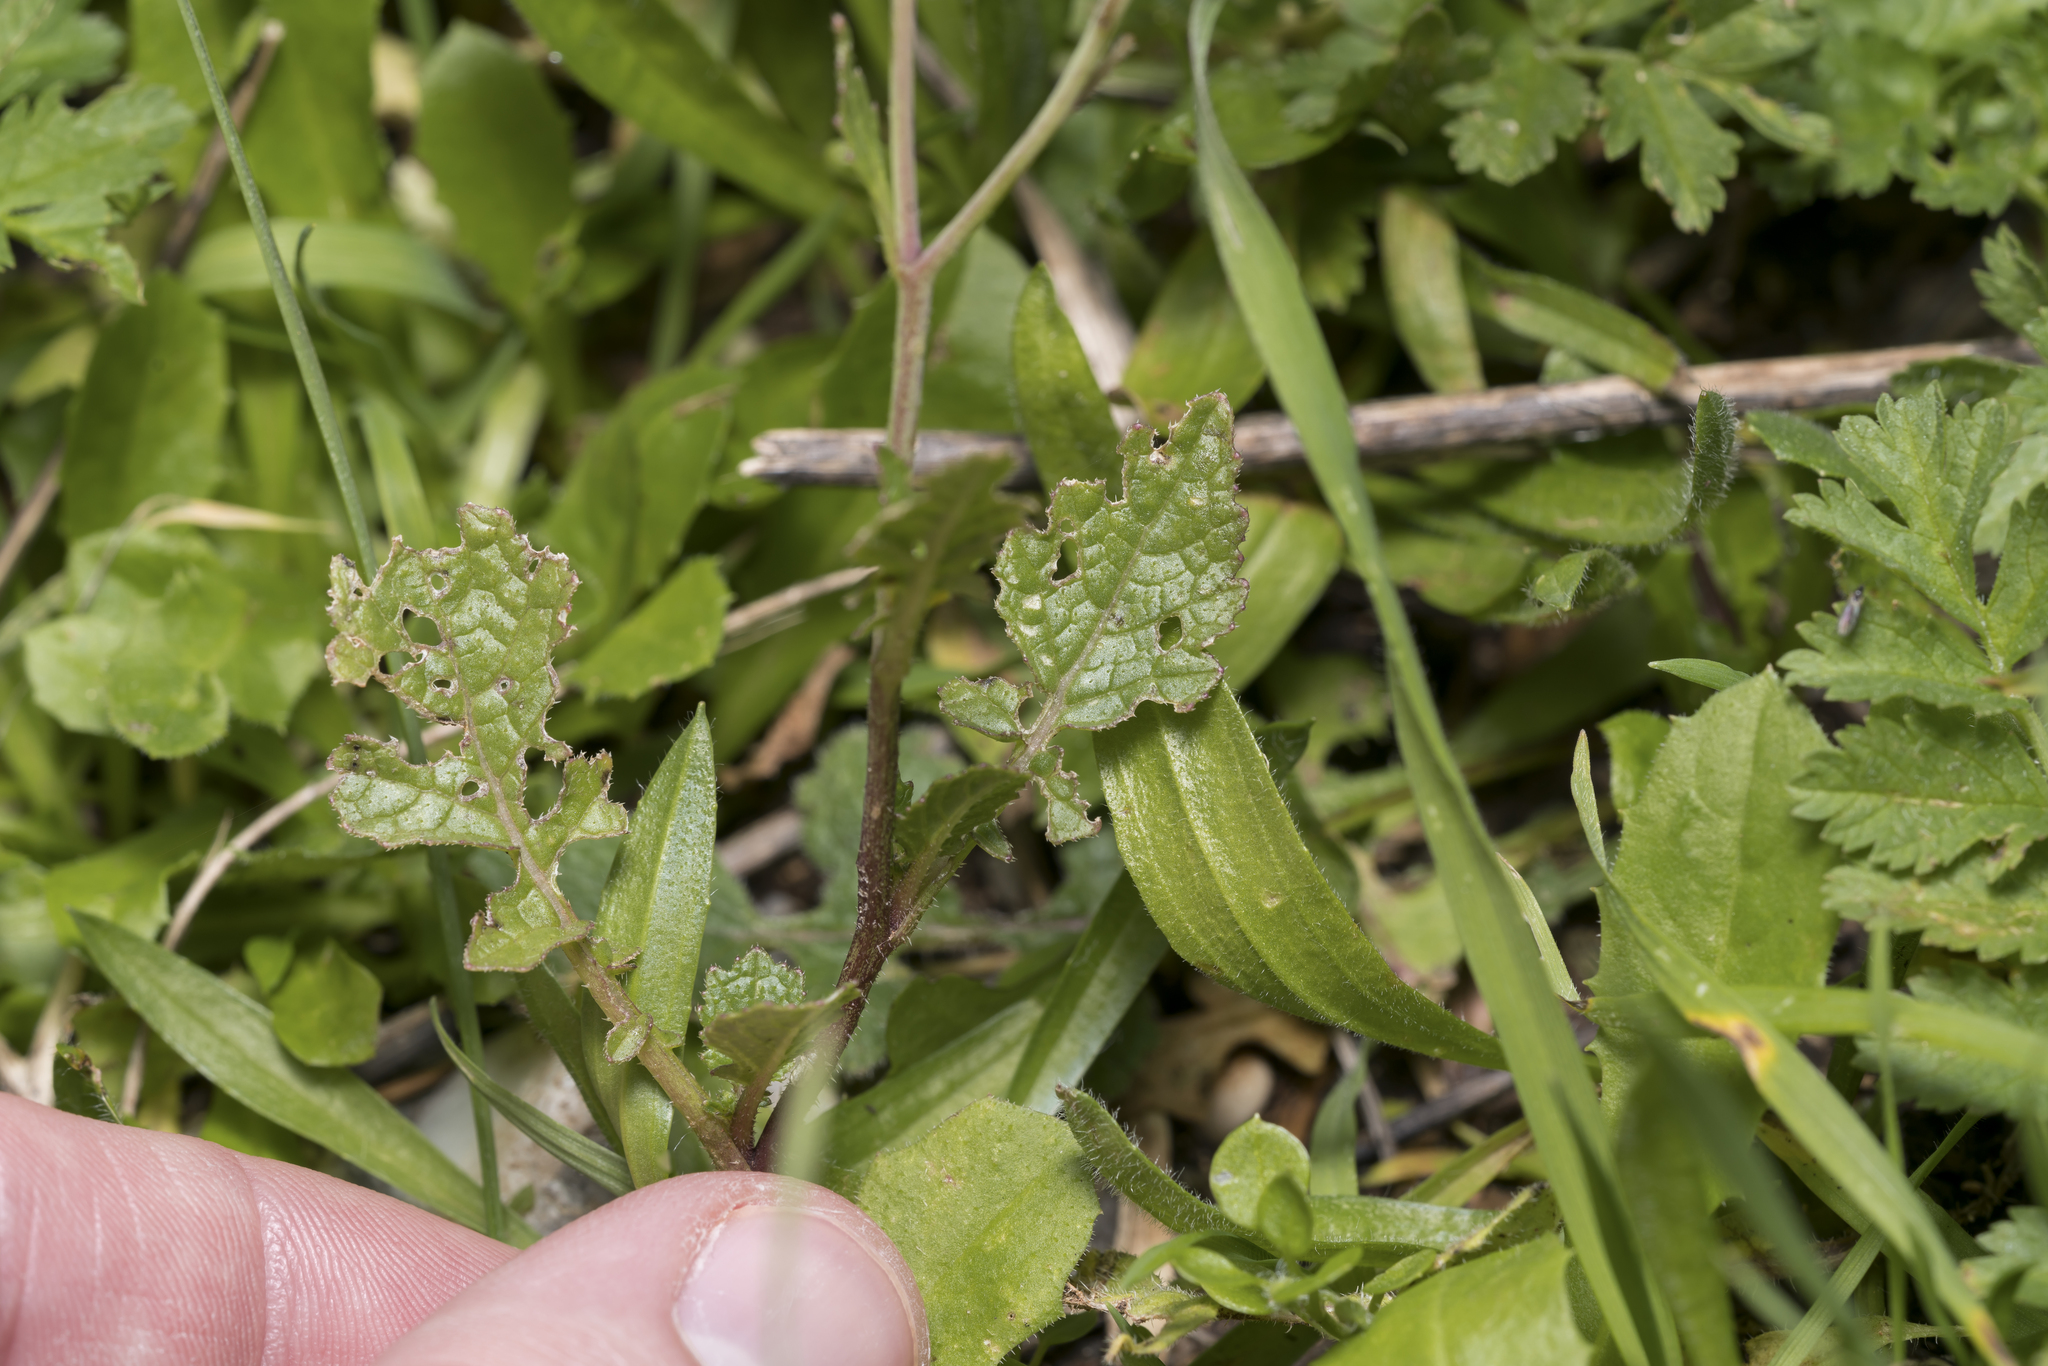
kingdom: Plantae
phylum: Tracheophyta
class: Magnoliopsida
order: Brassicales
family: Brassicaceae
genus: Raphanus
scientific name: Raphanus raphanistrum
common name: Wild radish
